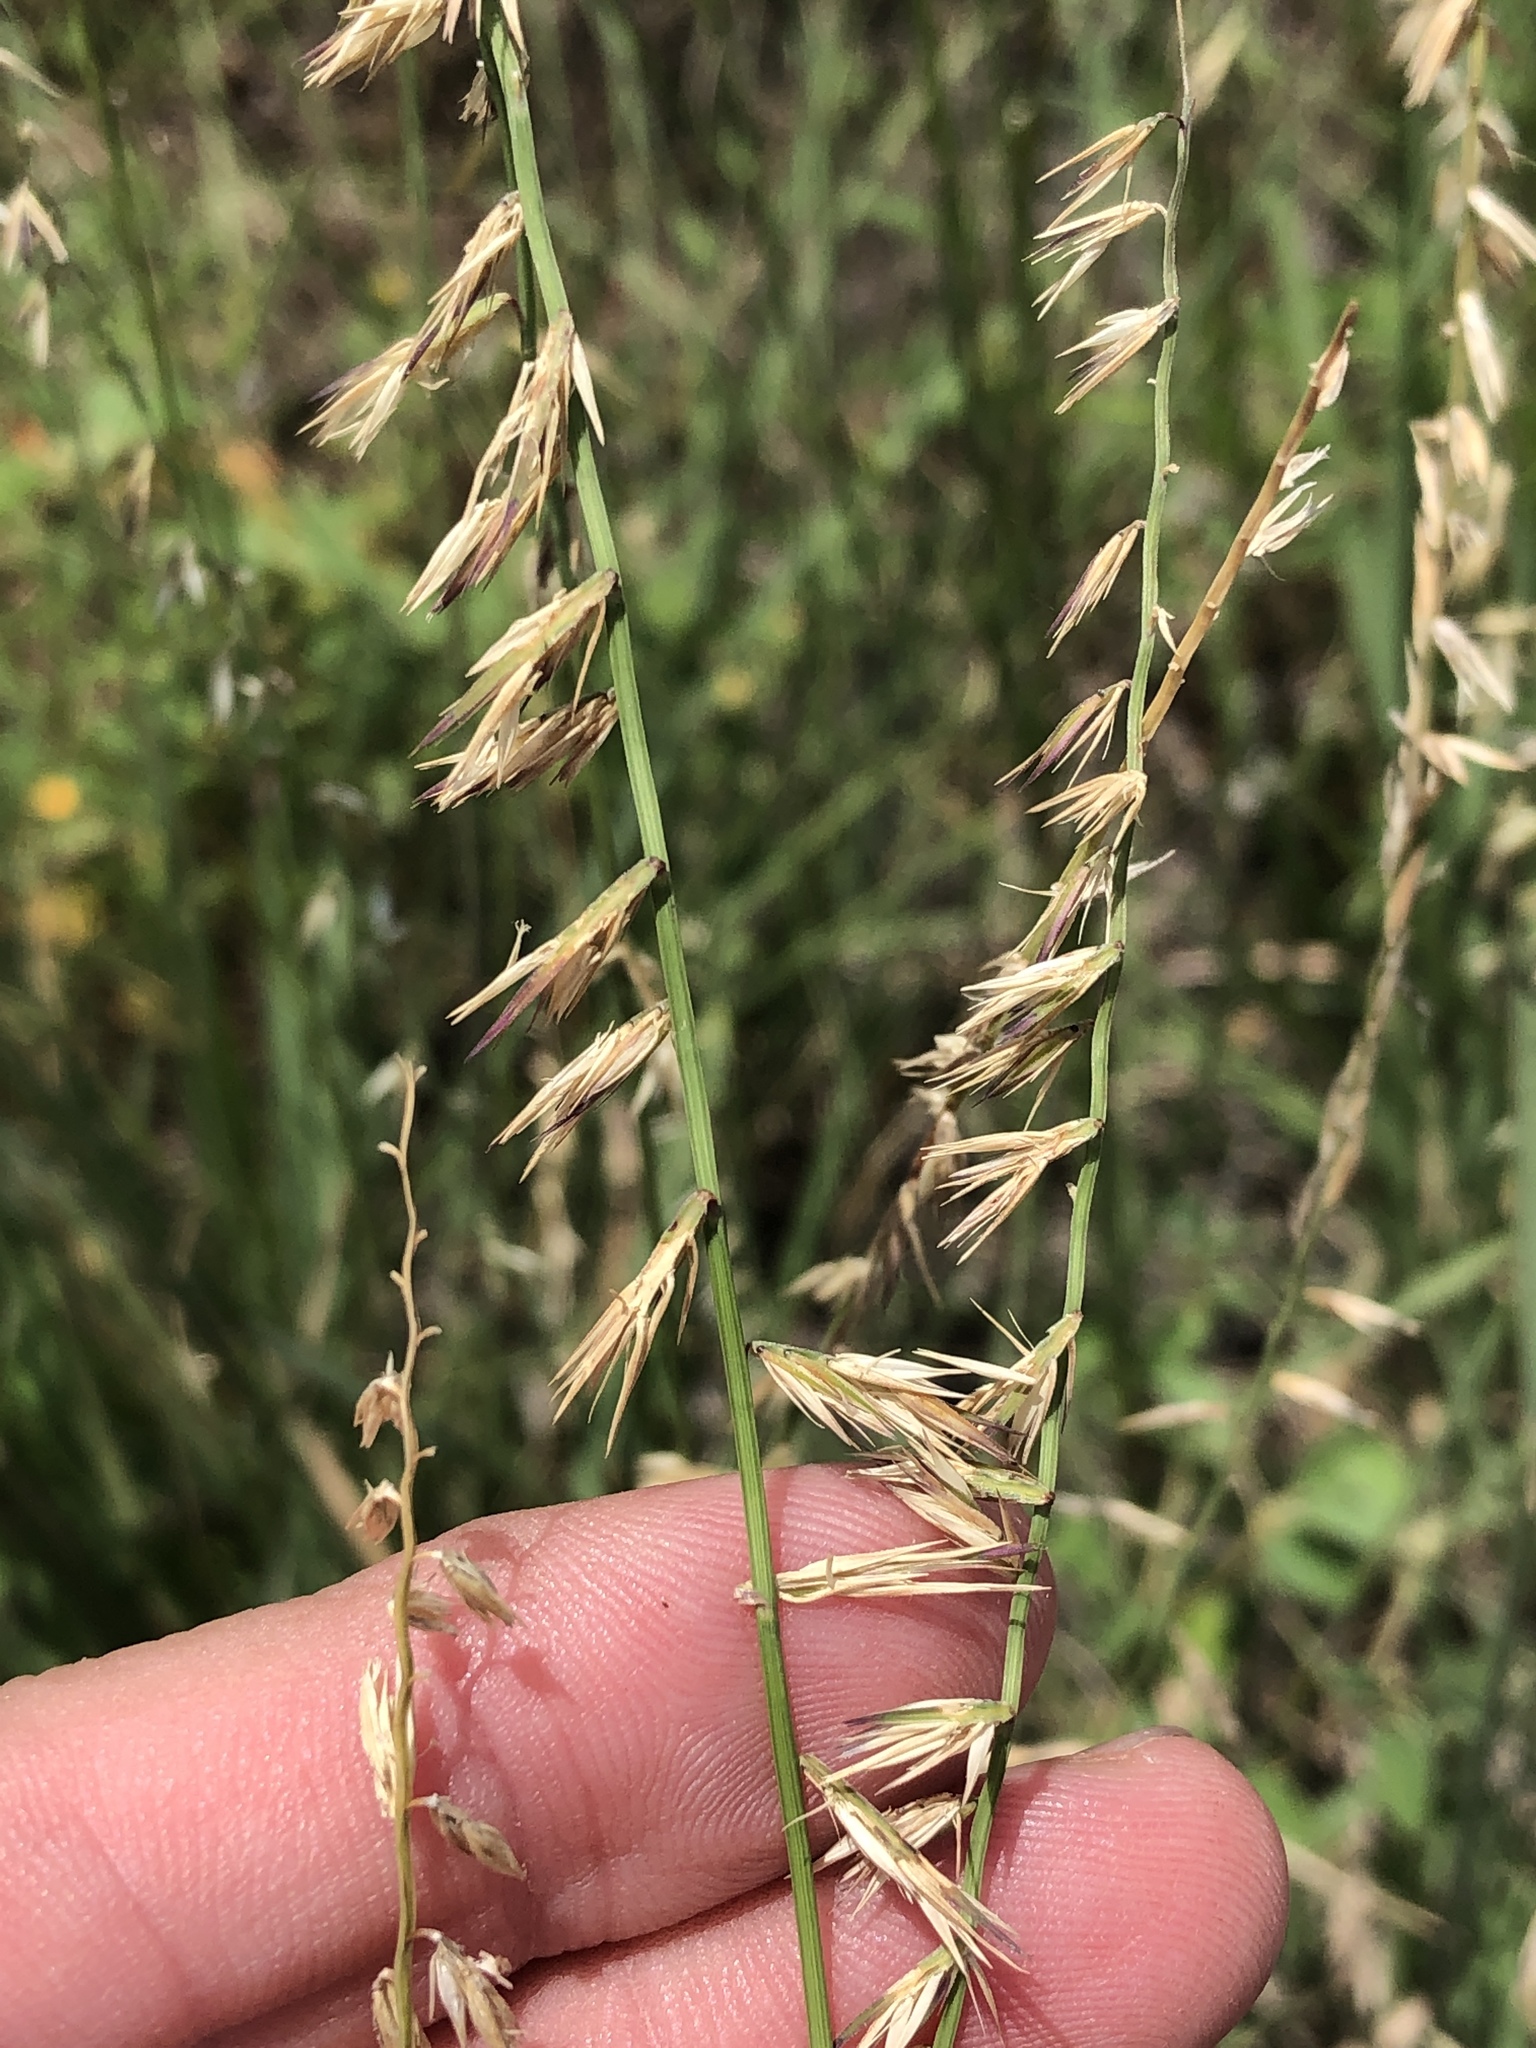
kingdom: Plantae
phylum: Tracheophyta
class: Liliopsida
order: Poales
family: Poaceae
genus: Bouteloua
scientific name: Bouteloua curtipendula
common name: Side-oats grama
